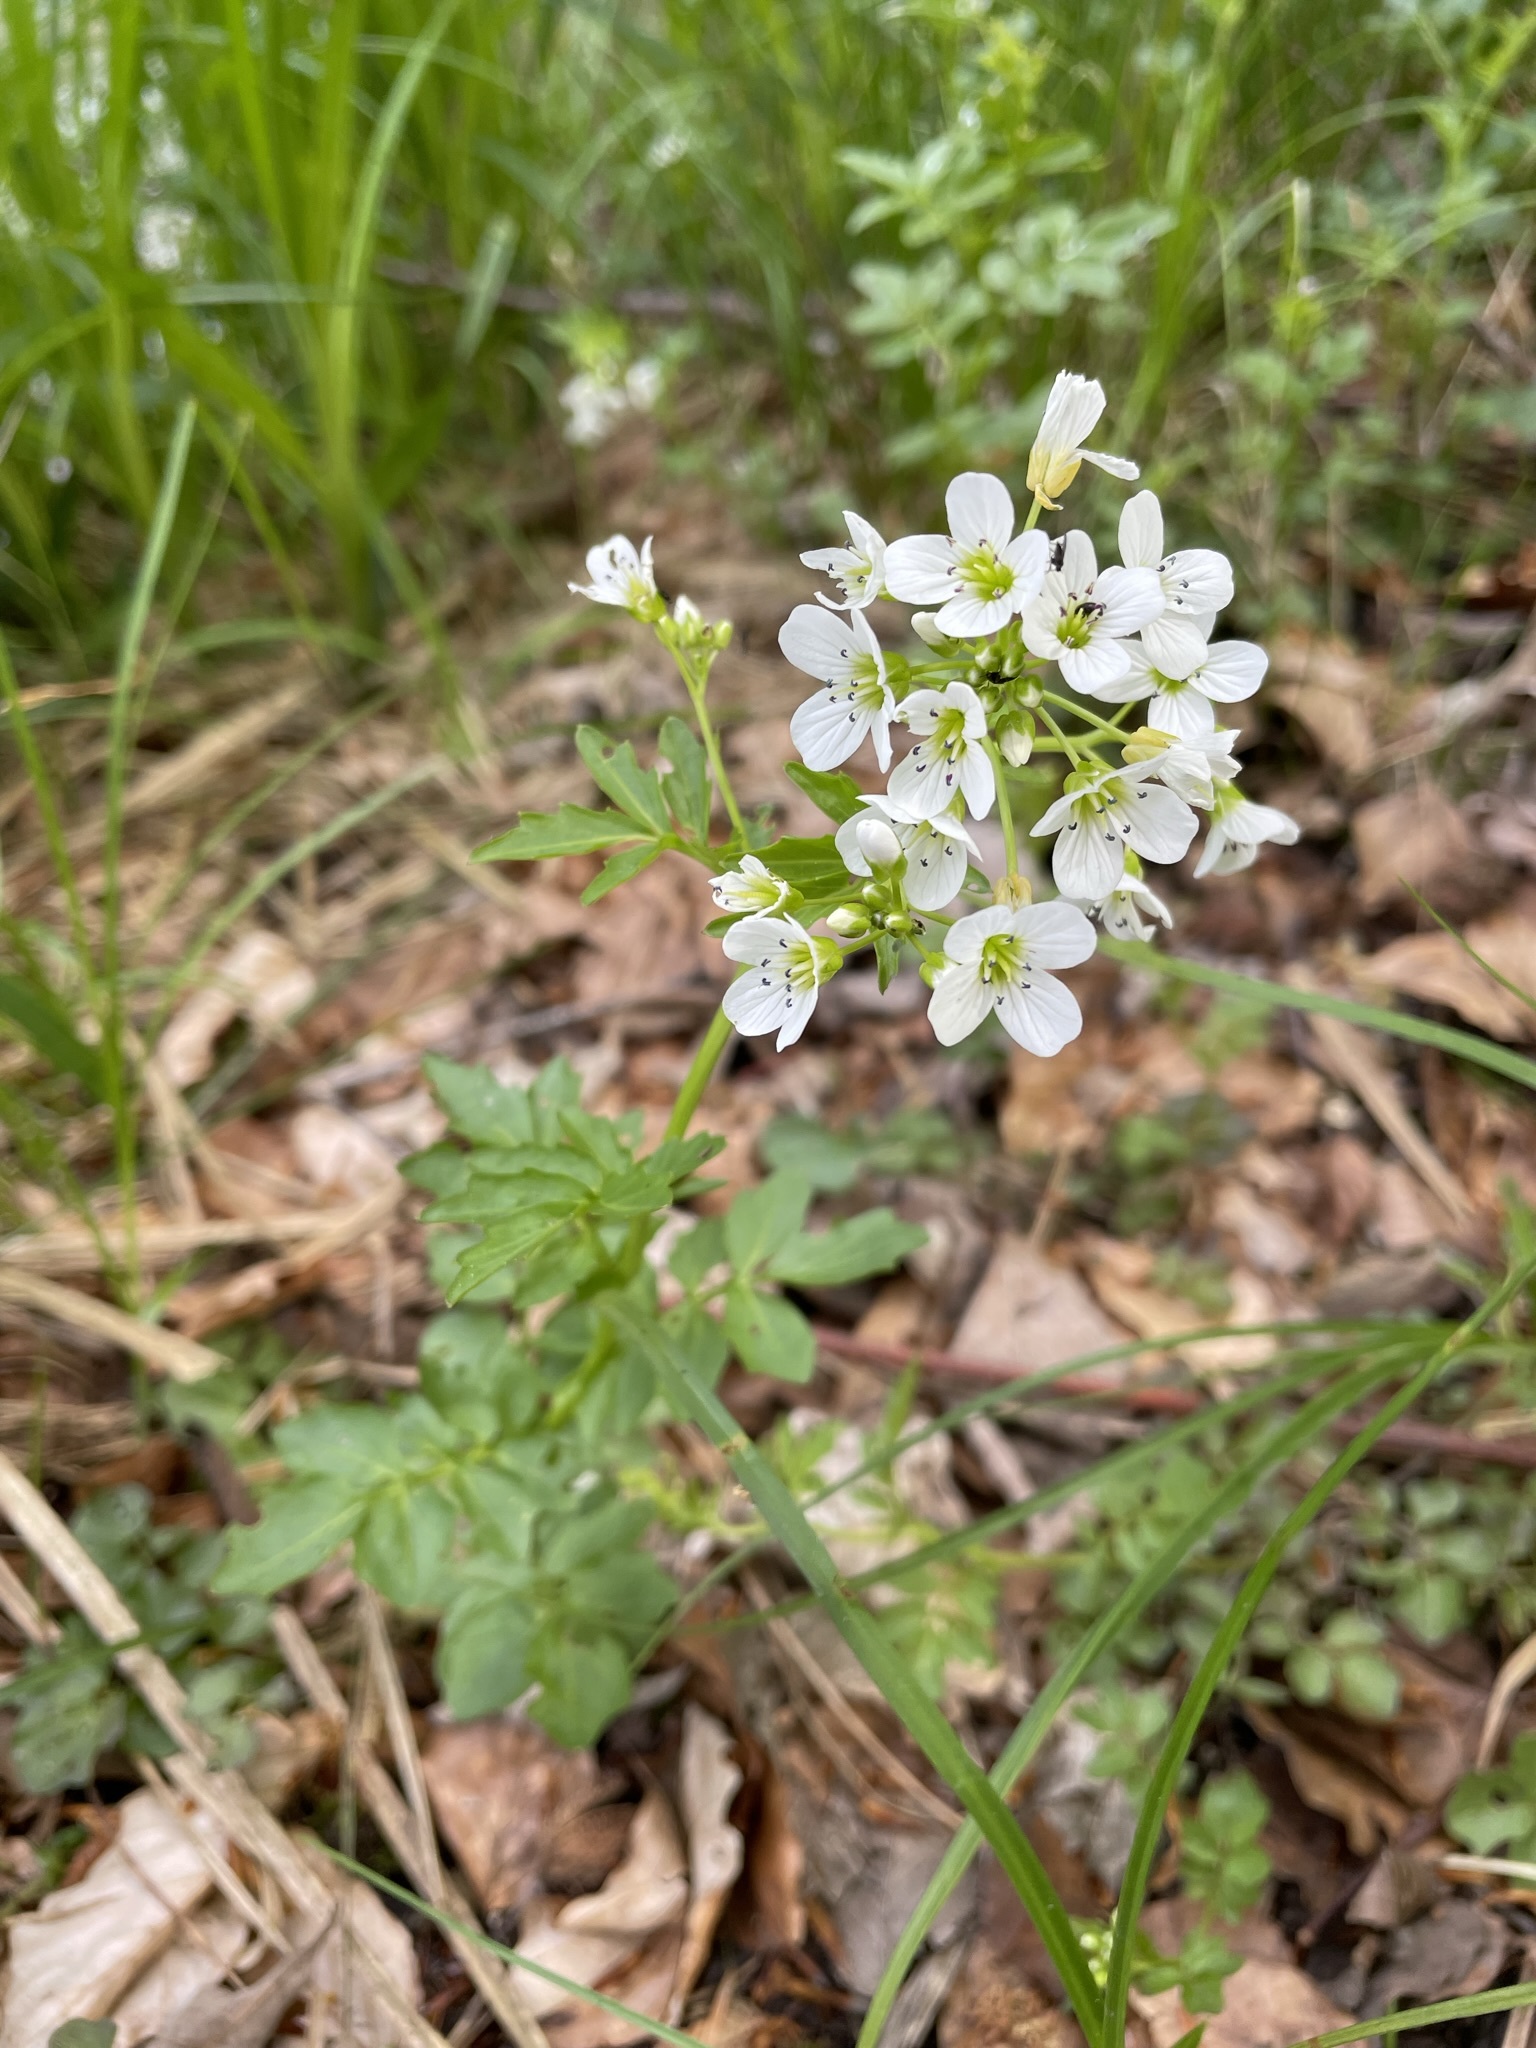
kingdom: Plantae
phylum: Tracheophyta
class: Magnoliopsida
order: Brassicales
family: Brassicaceae
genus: Cardamine
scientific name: Cardamine amara
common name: Large bitter-cress
